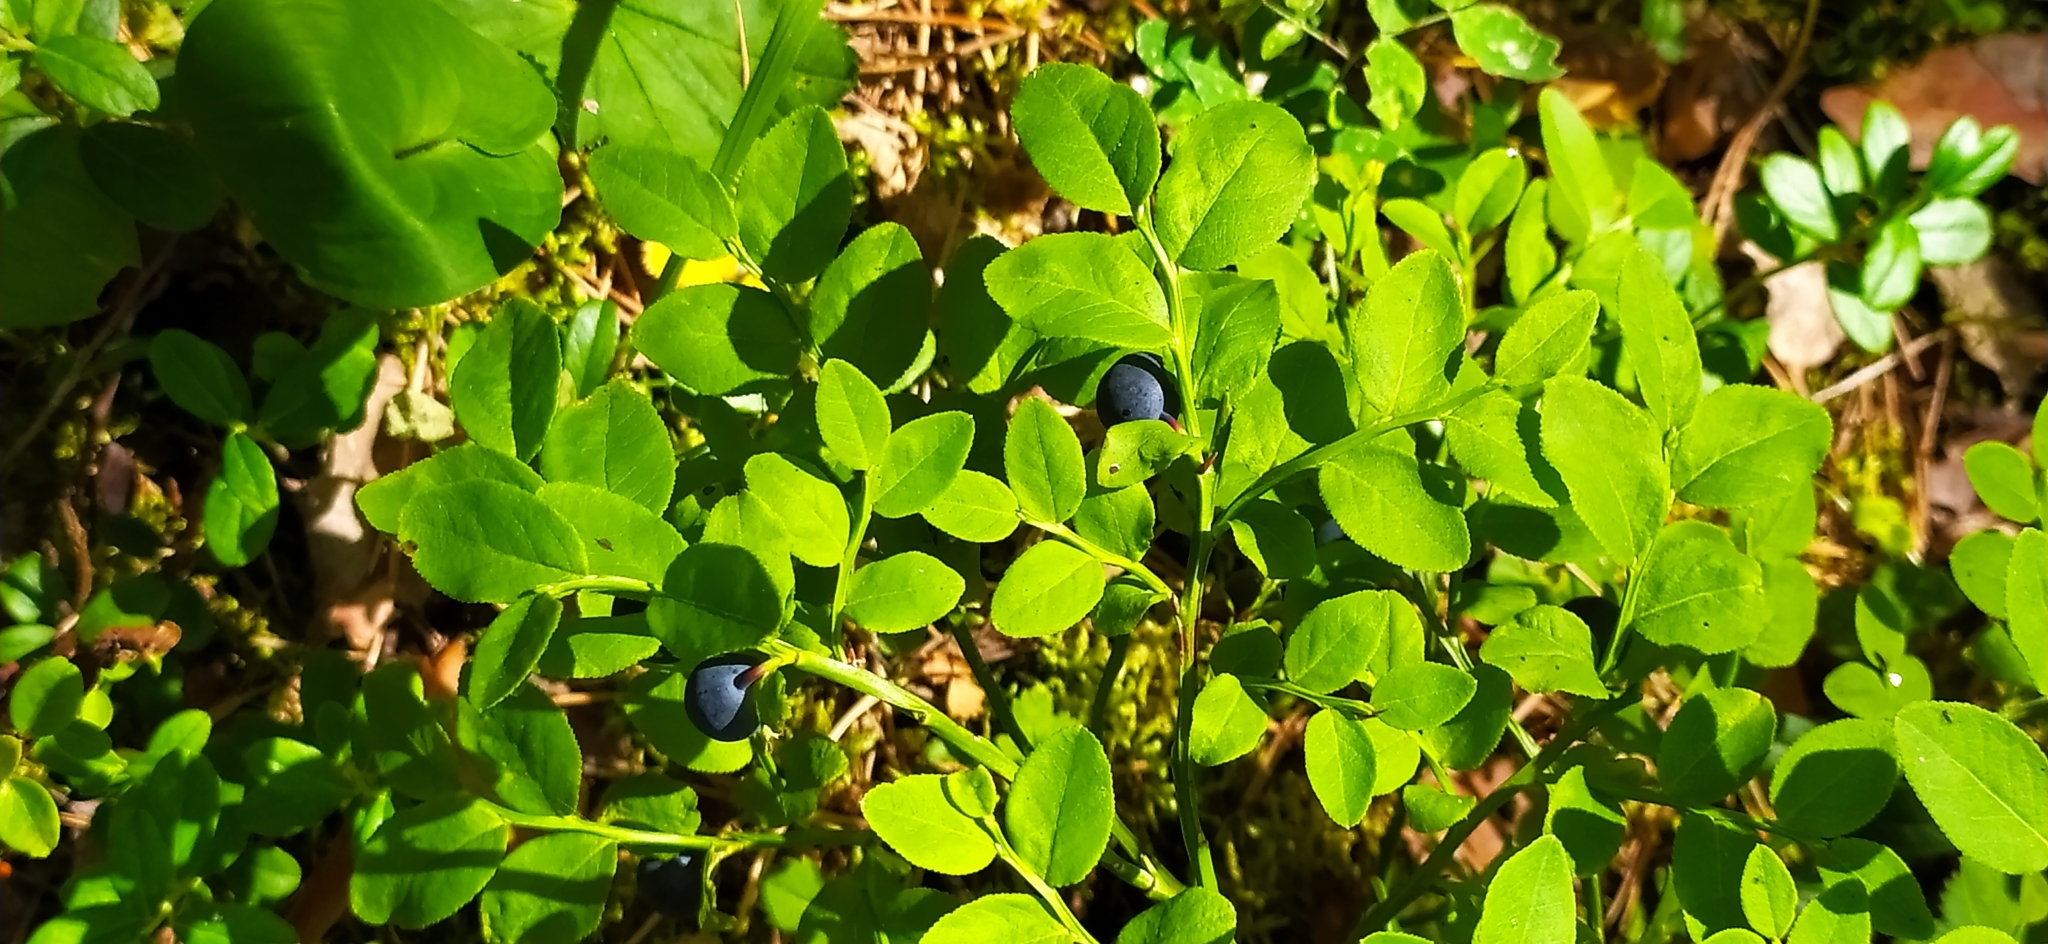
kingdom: Plantae
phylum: Tracheophyta
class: Magnoliopsida
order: Ericales
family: Ericaceae
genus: Vaccinium
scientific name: Vaccinium myrtillus
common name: Bilberry
